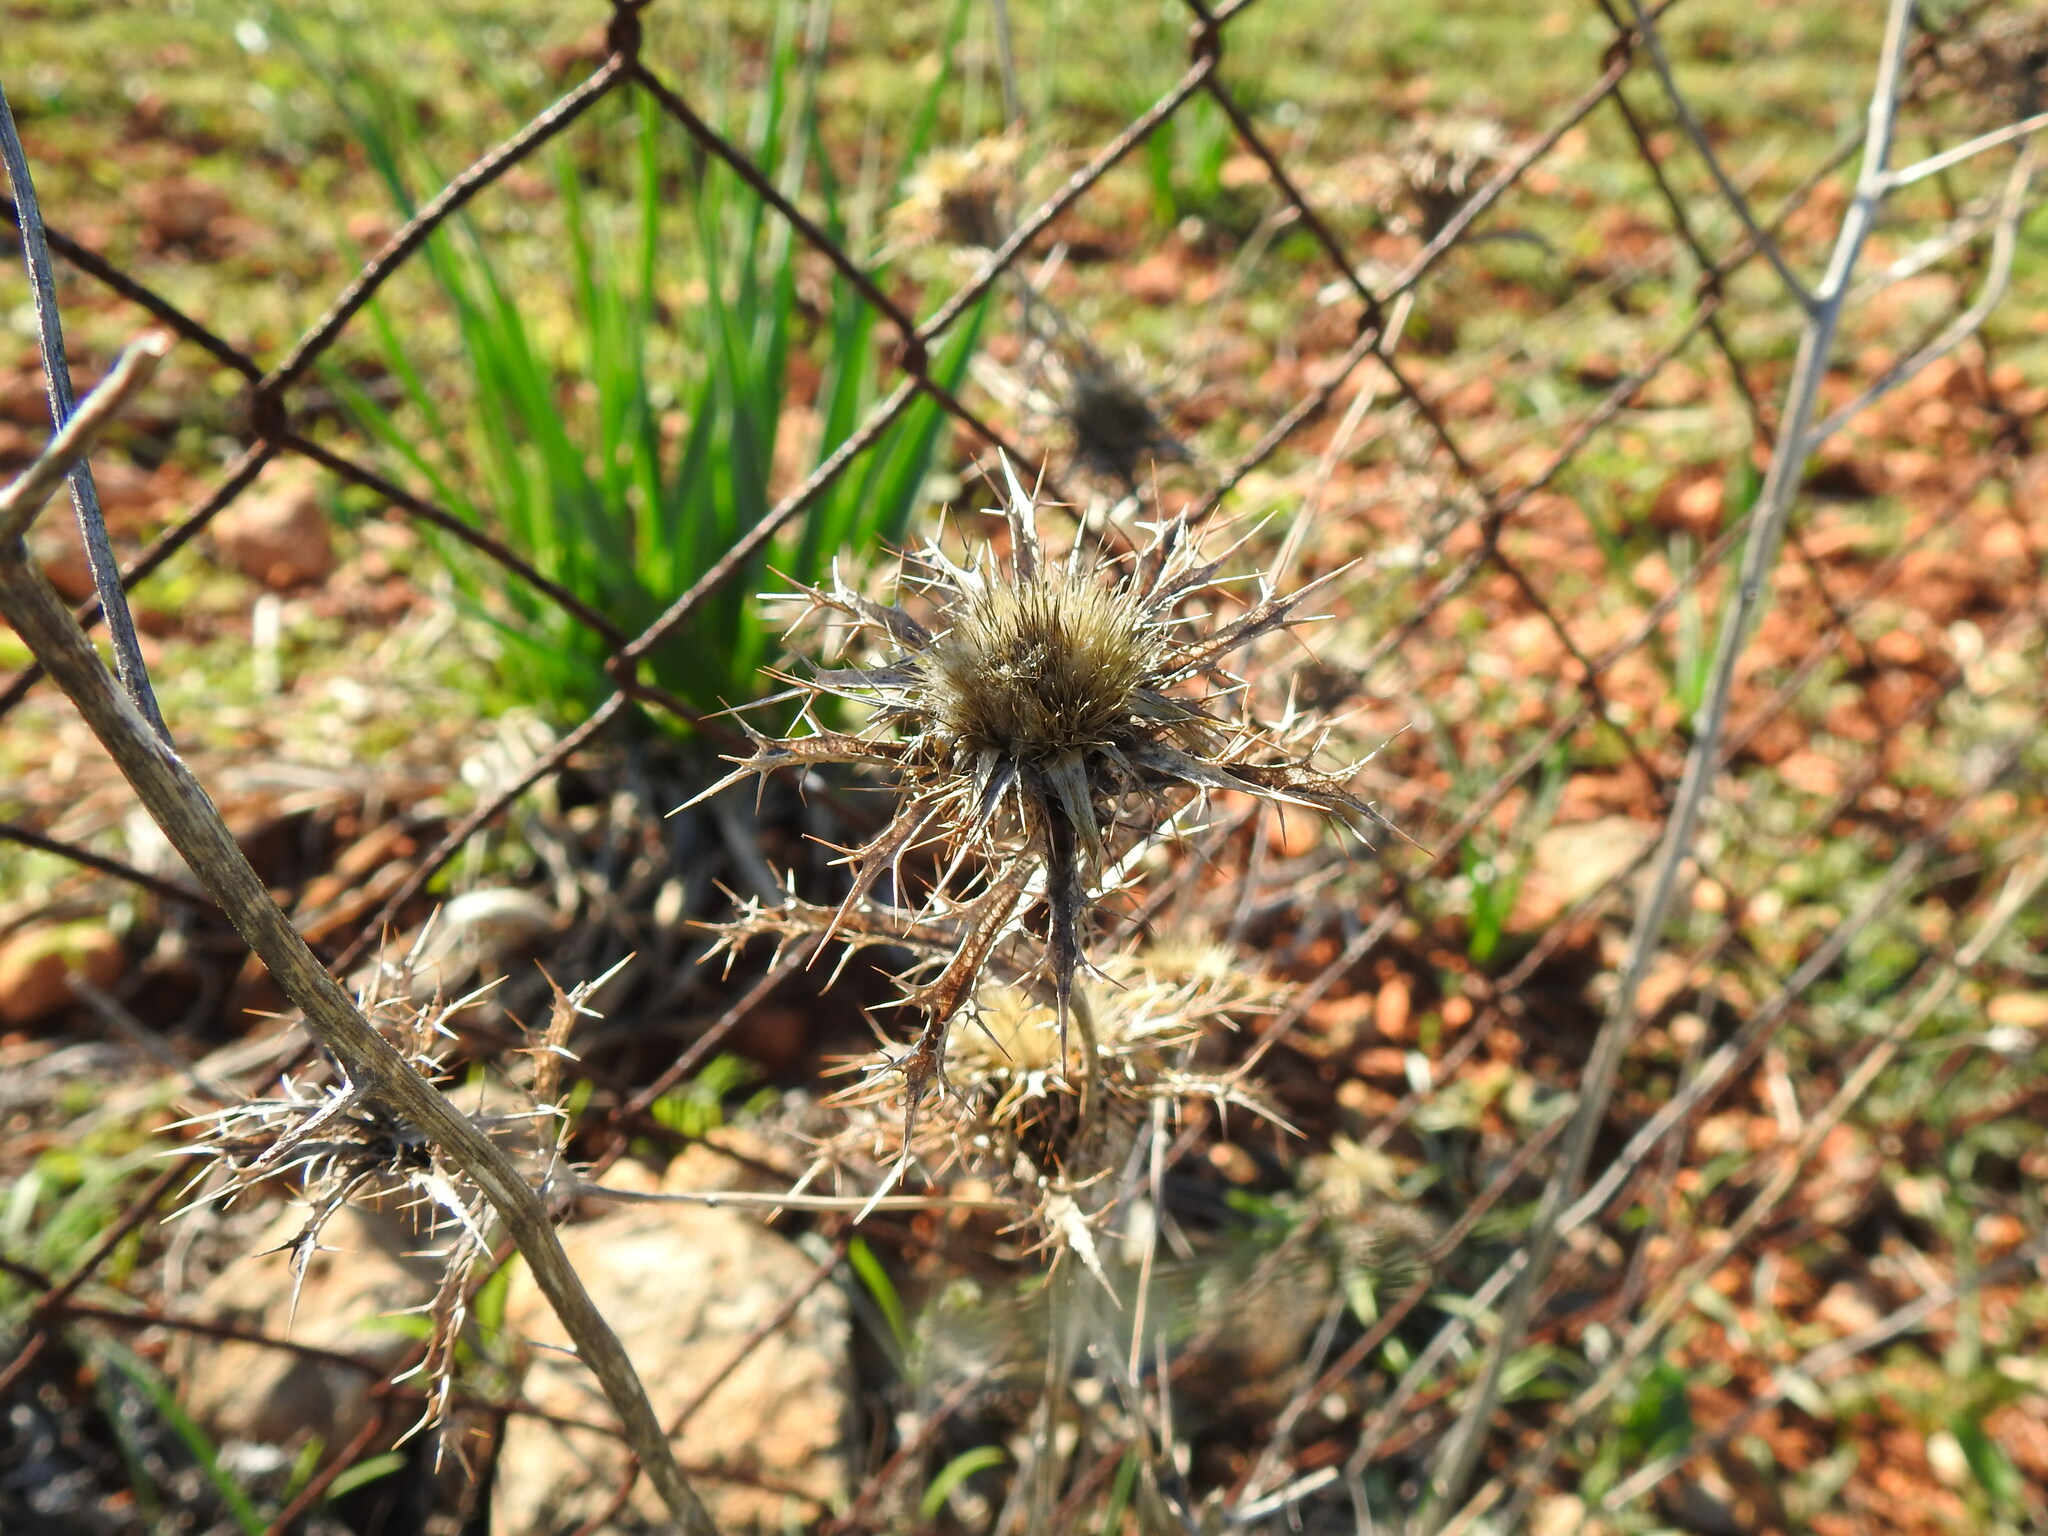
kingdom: Plantae
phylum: Tracheophyta
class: Magnoliopsida
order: Asterales
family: Asteraceae
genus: Carlina
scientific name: Carlina hispanica
